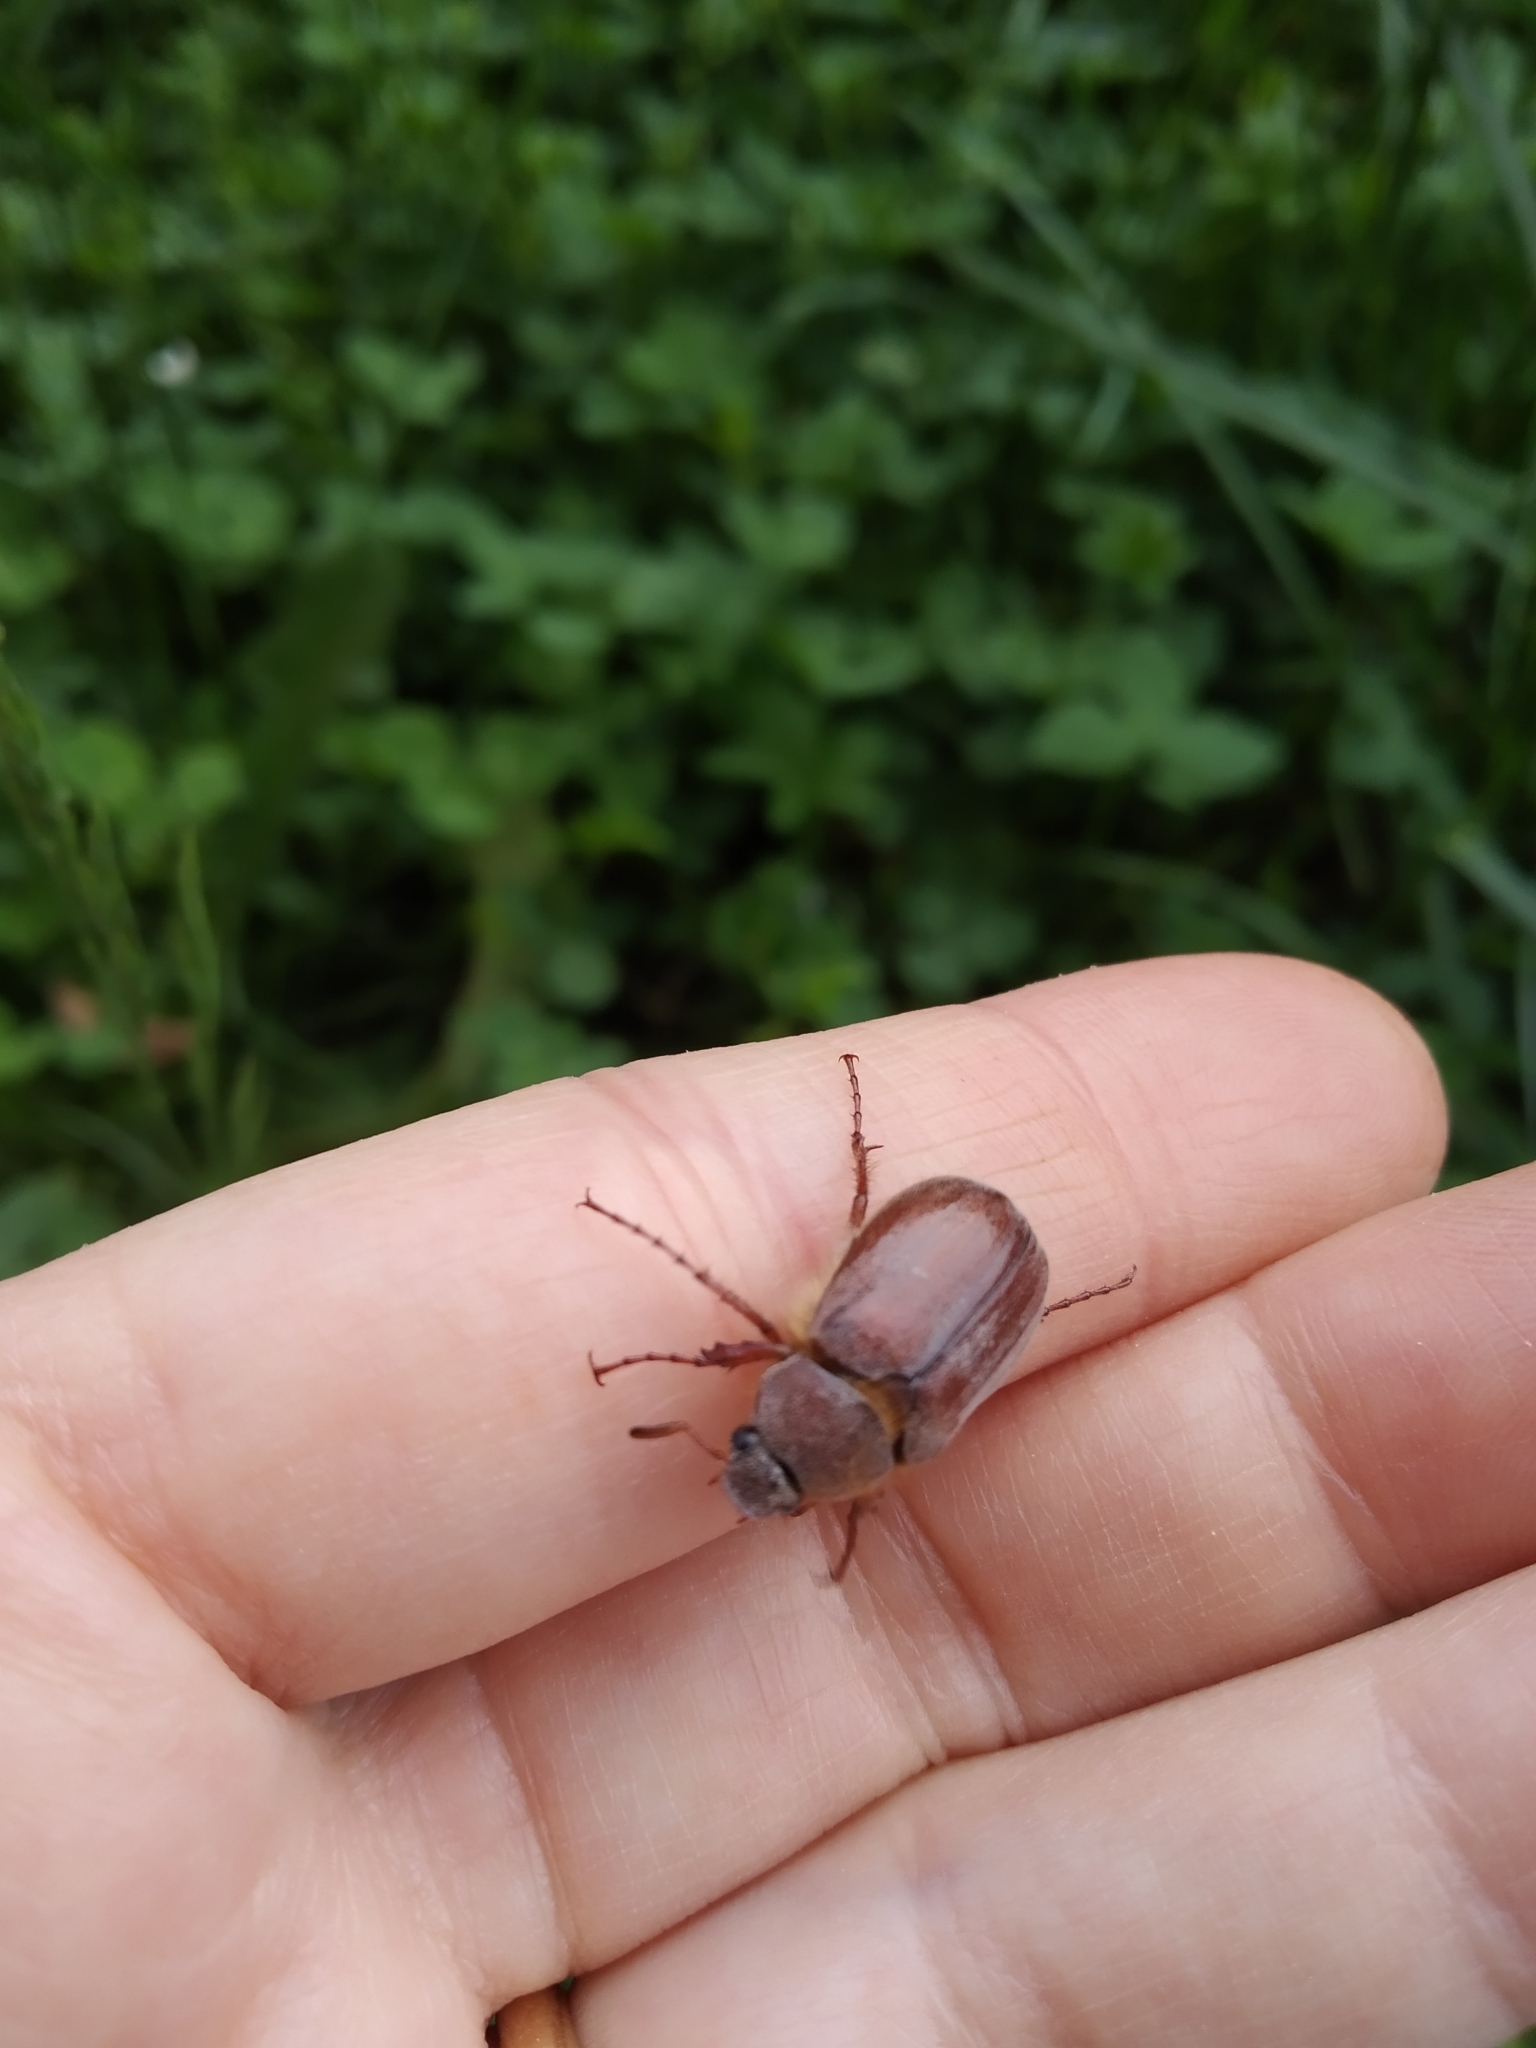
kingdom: Animalia
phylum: Arthropoda
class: Insecta
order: Coleoptera
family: Scarabaeidae
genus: Holochelus
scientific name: Holochelus fraxinicola
